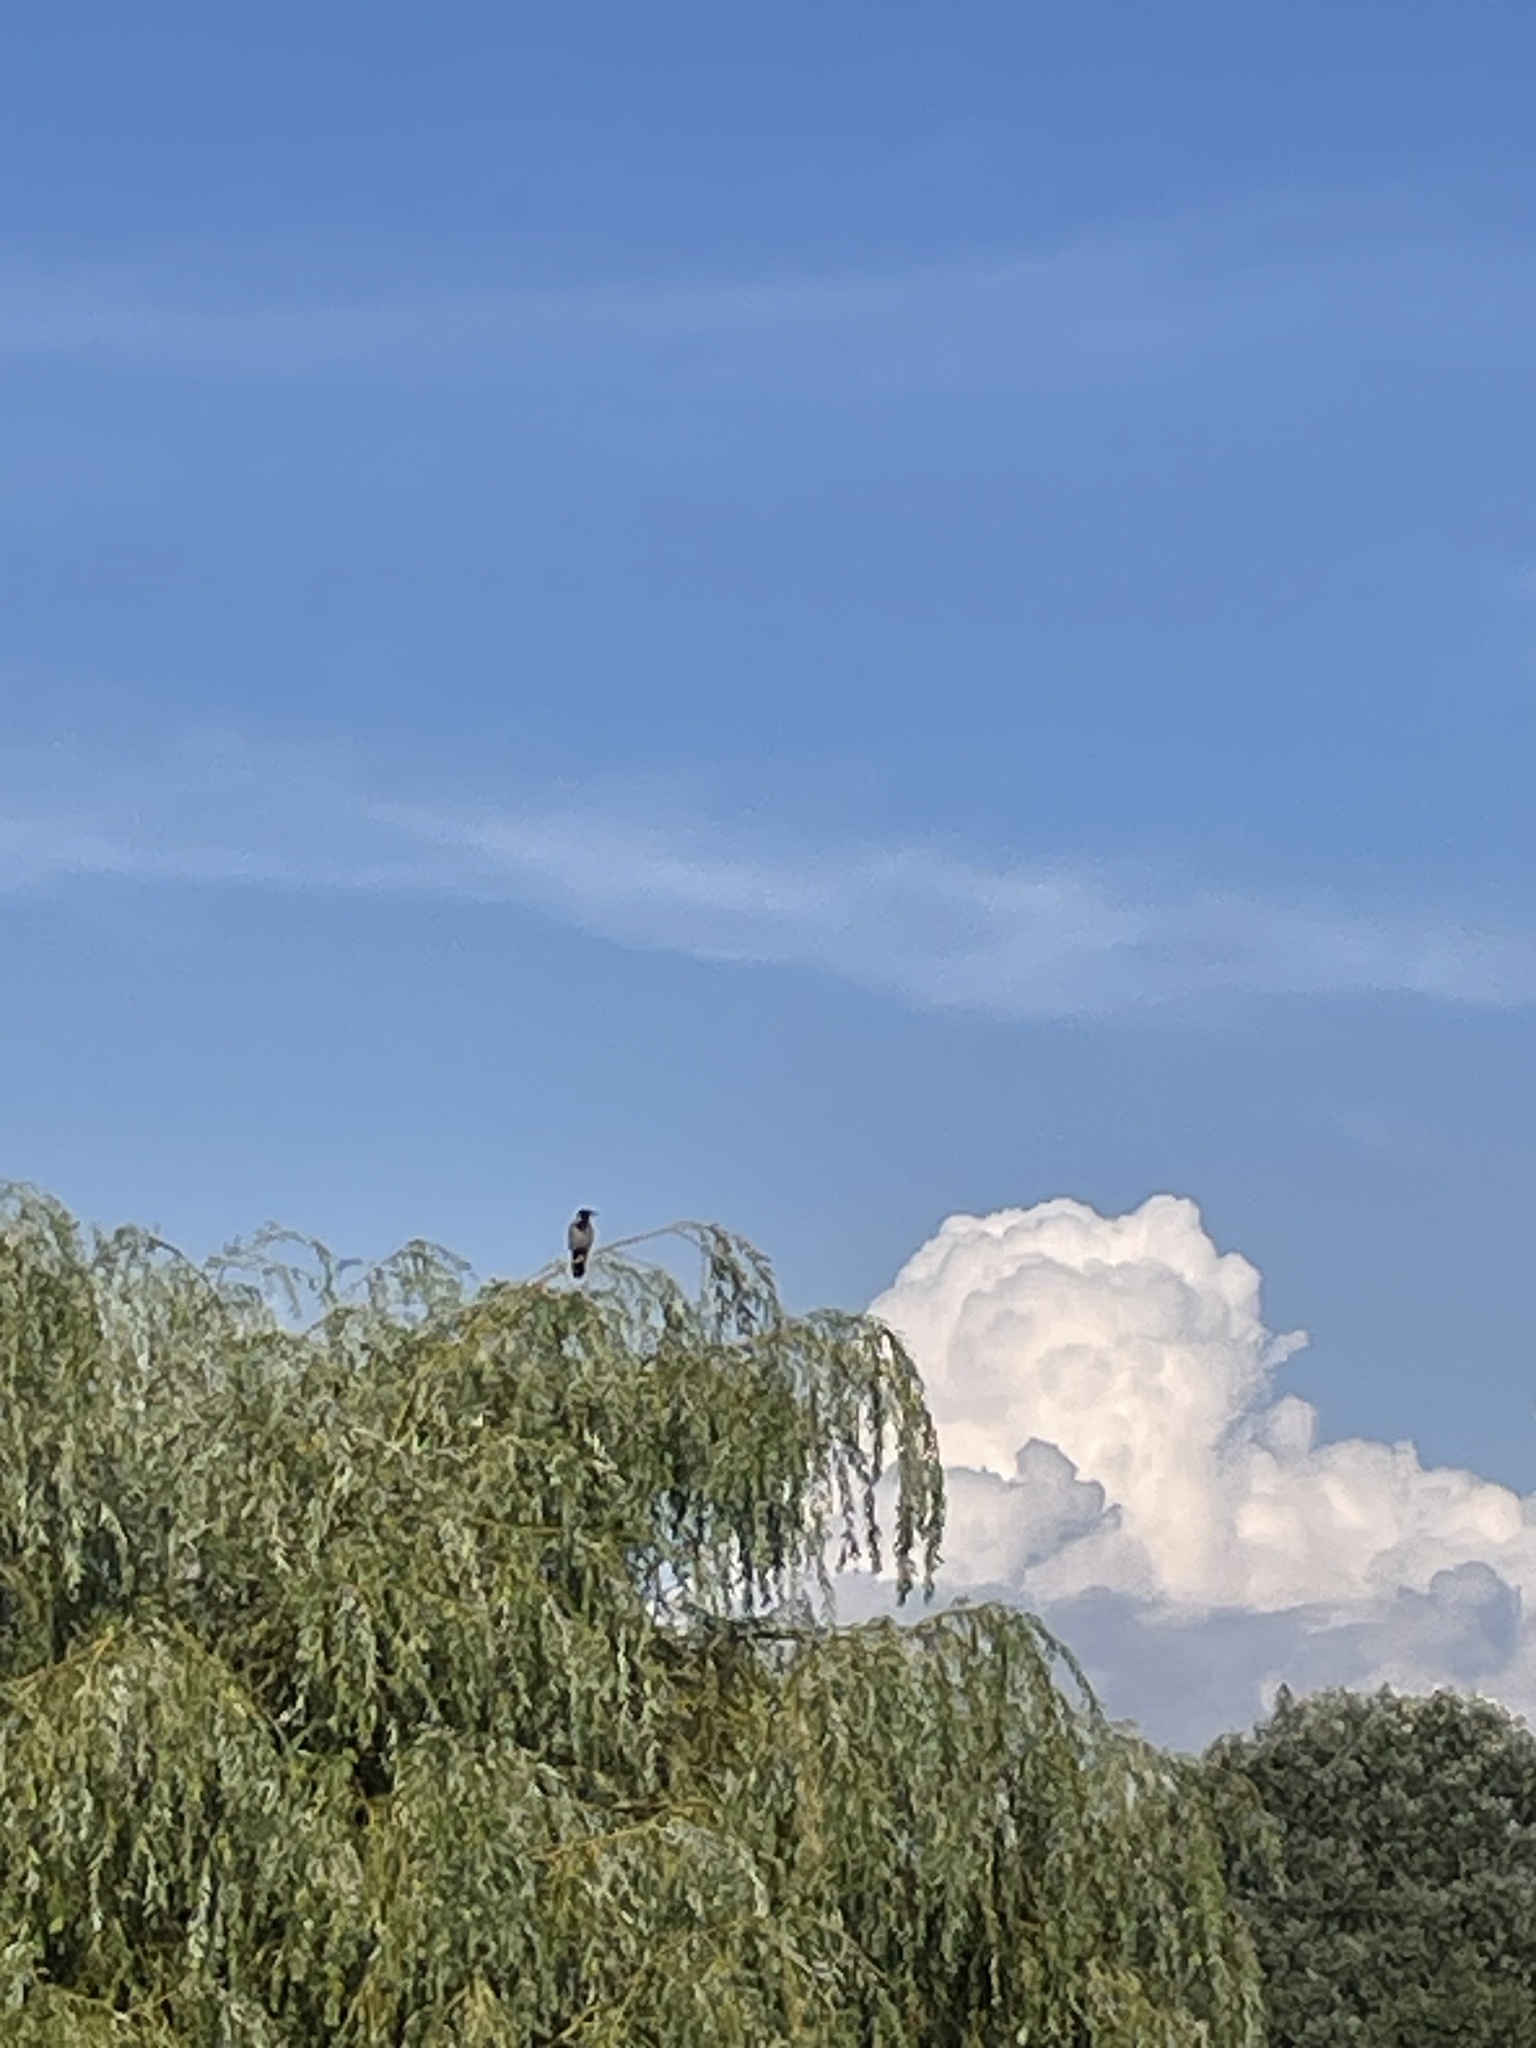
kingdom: Animalia
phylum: Chordata
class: Aves
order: Passeriformes
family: Corvidae
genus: Corvus
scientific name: Corvus cornix
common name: Hooded crow
